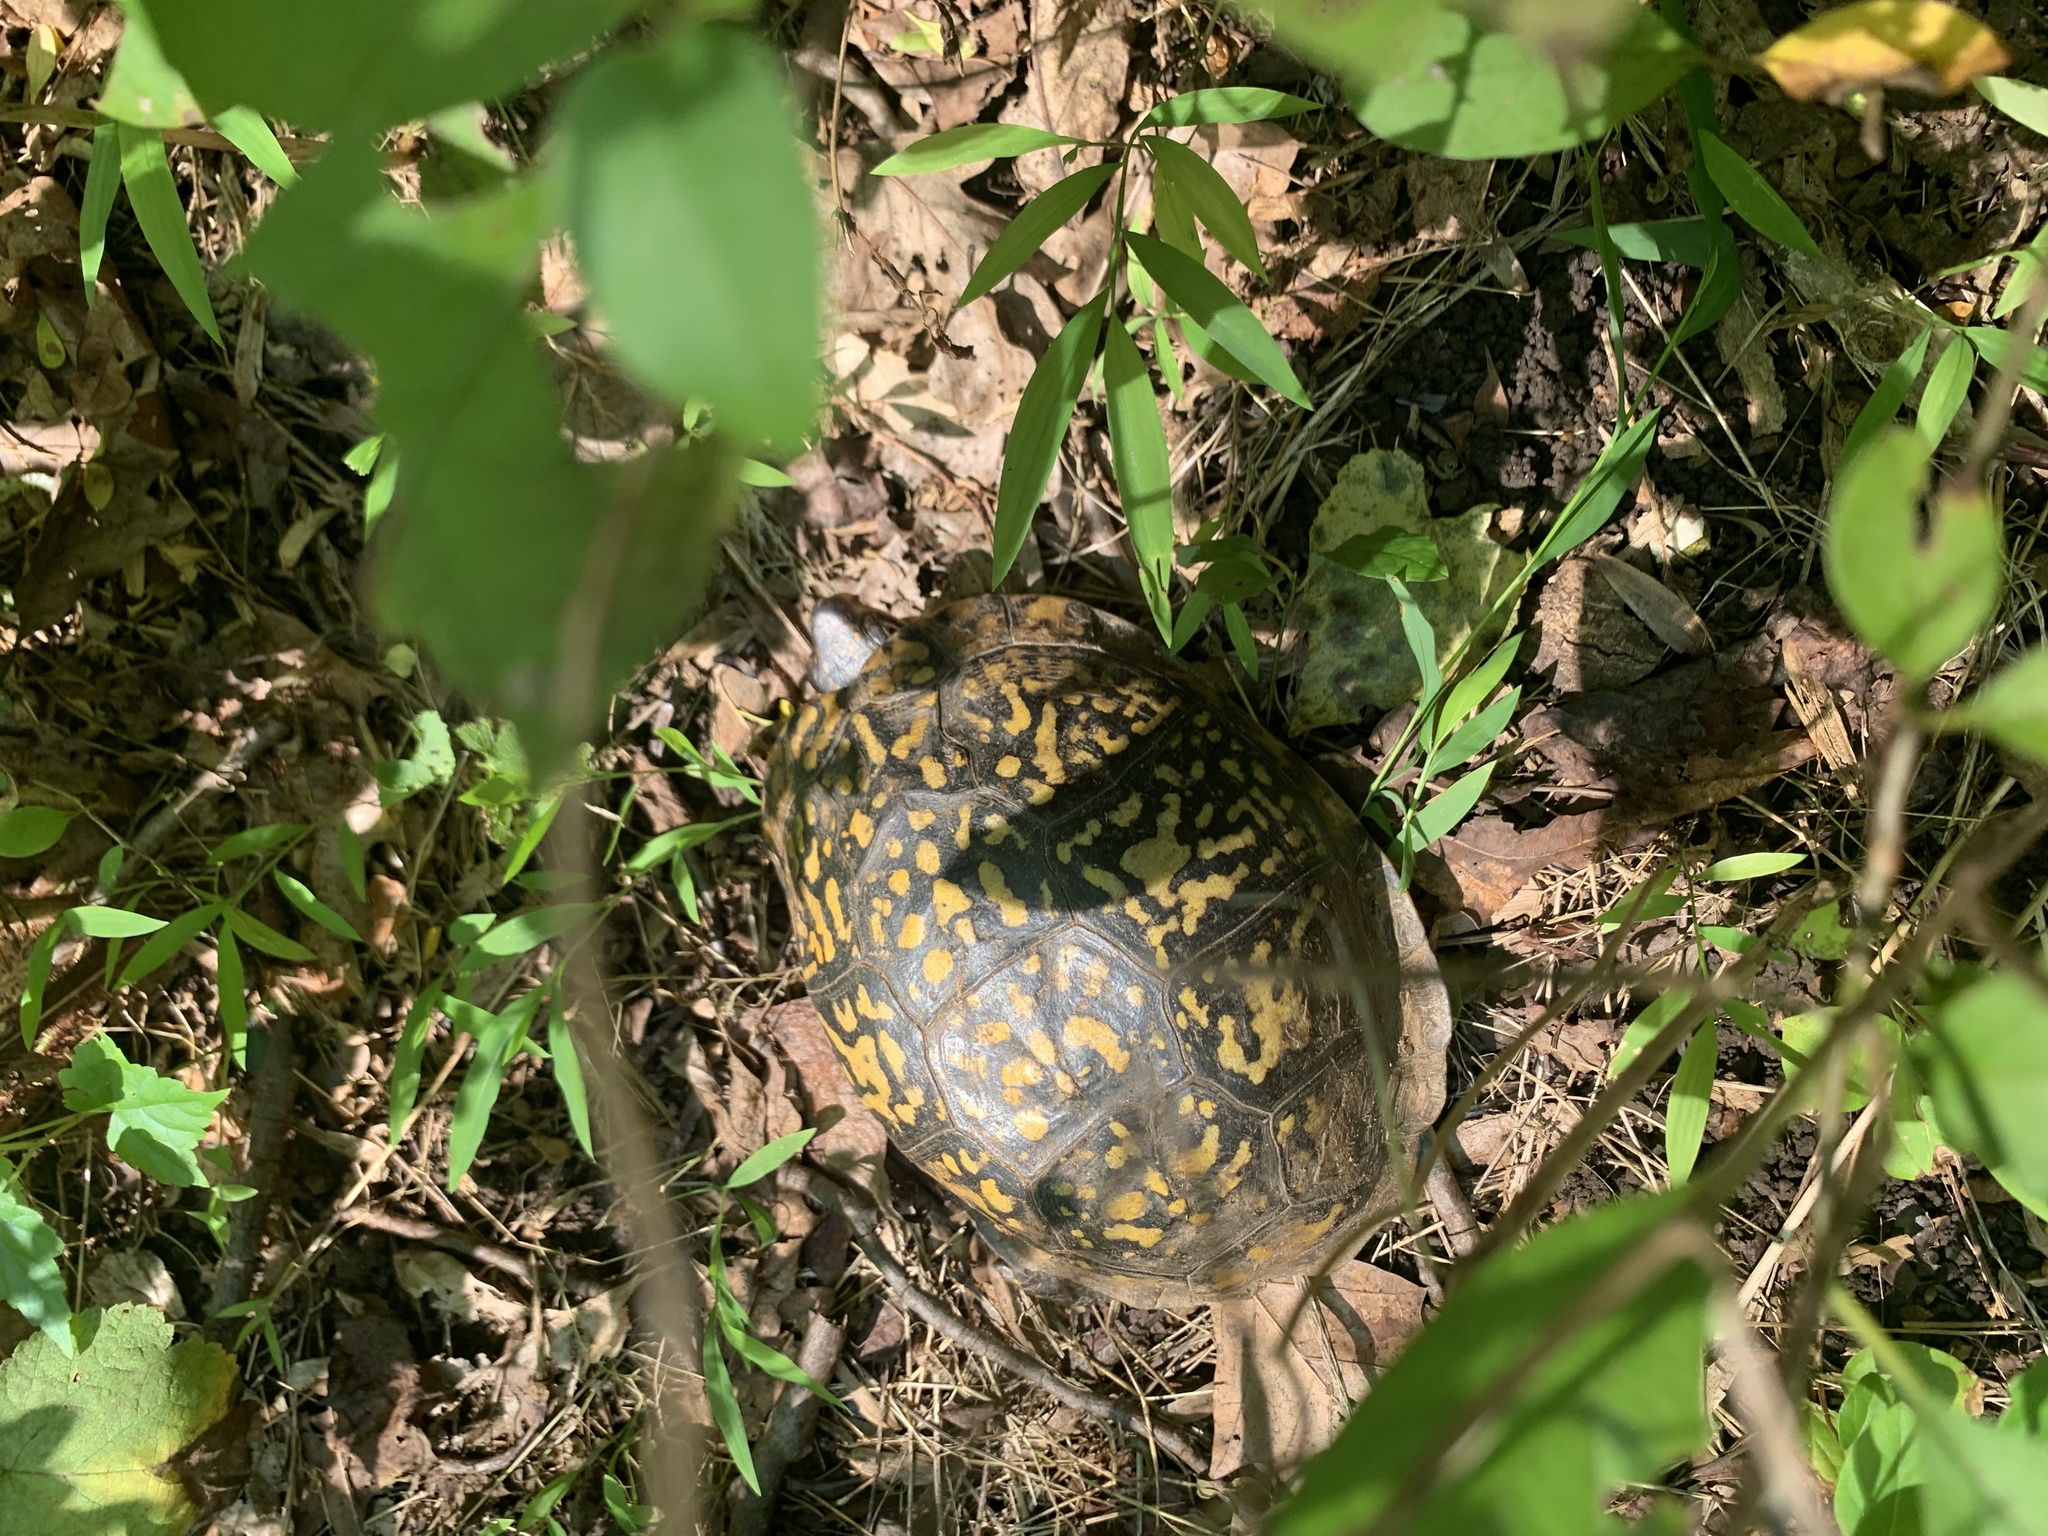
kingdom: Animalia
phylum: Chordata
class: Testudines
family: Emydidae
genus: Terrapene
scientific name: Terrapene carolina
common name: Common box turtle
